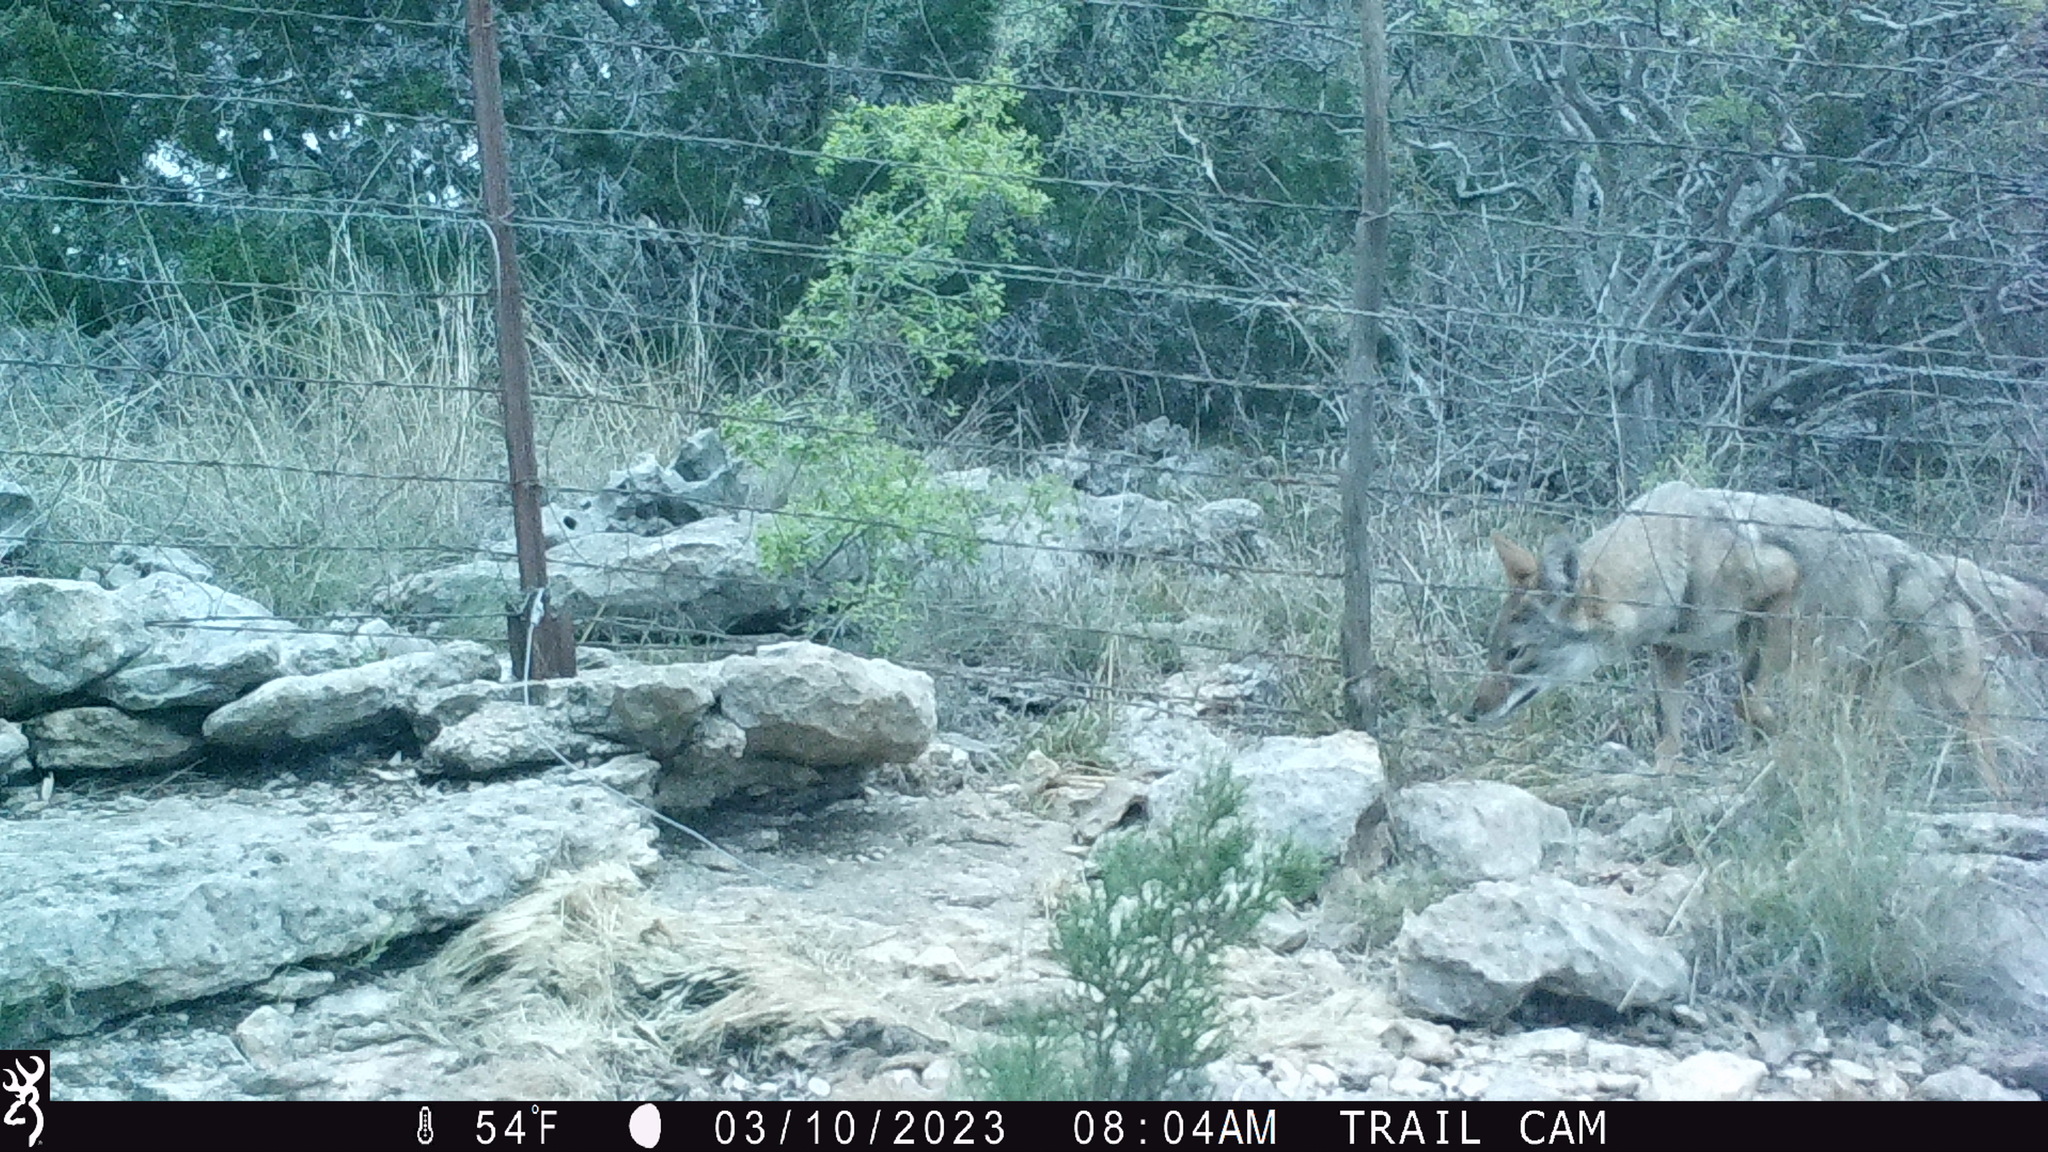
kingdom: Animalia
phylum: Chordata
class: Mammalia
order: Carnivora
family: Canidae
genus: Canis
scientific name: Canis latrans
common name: Coyote
